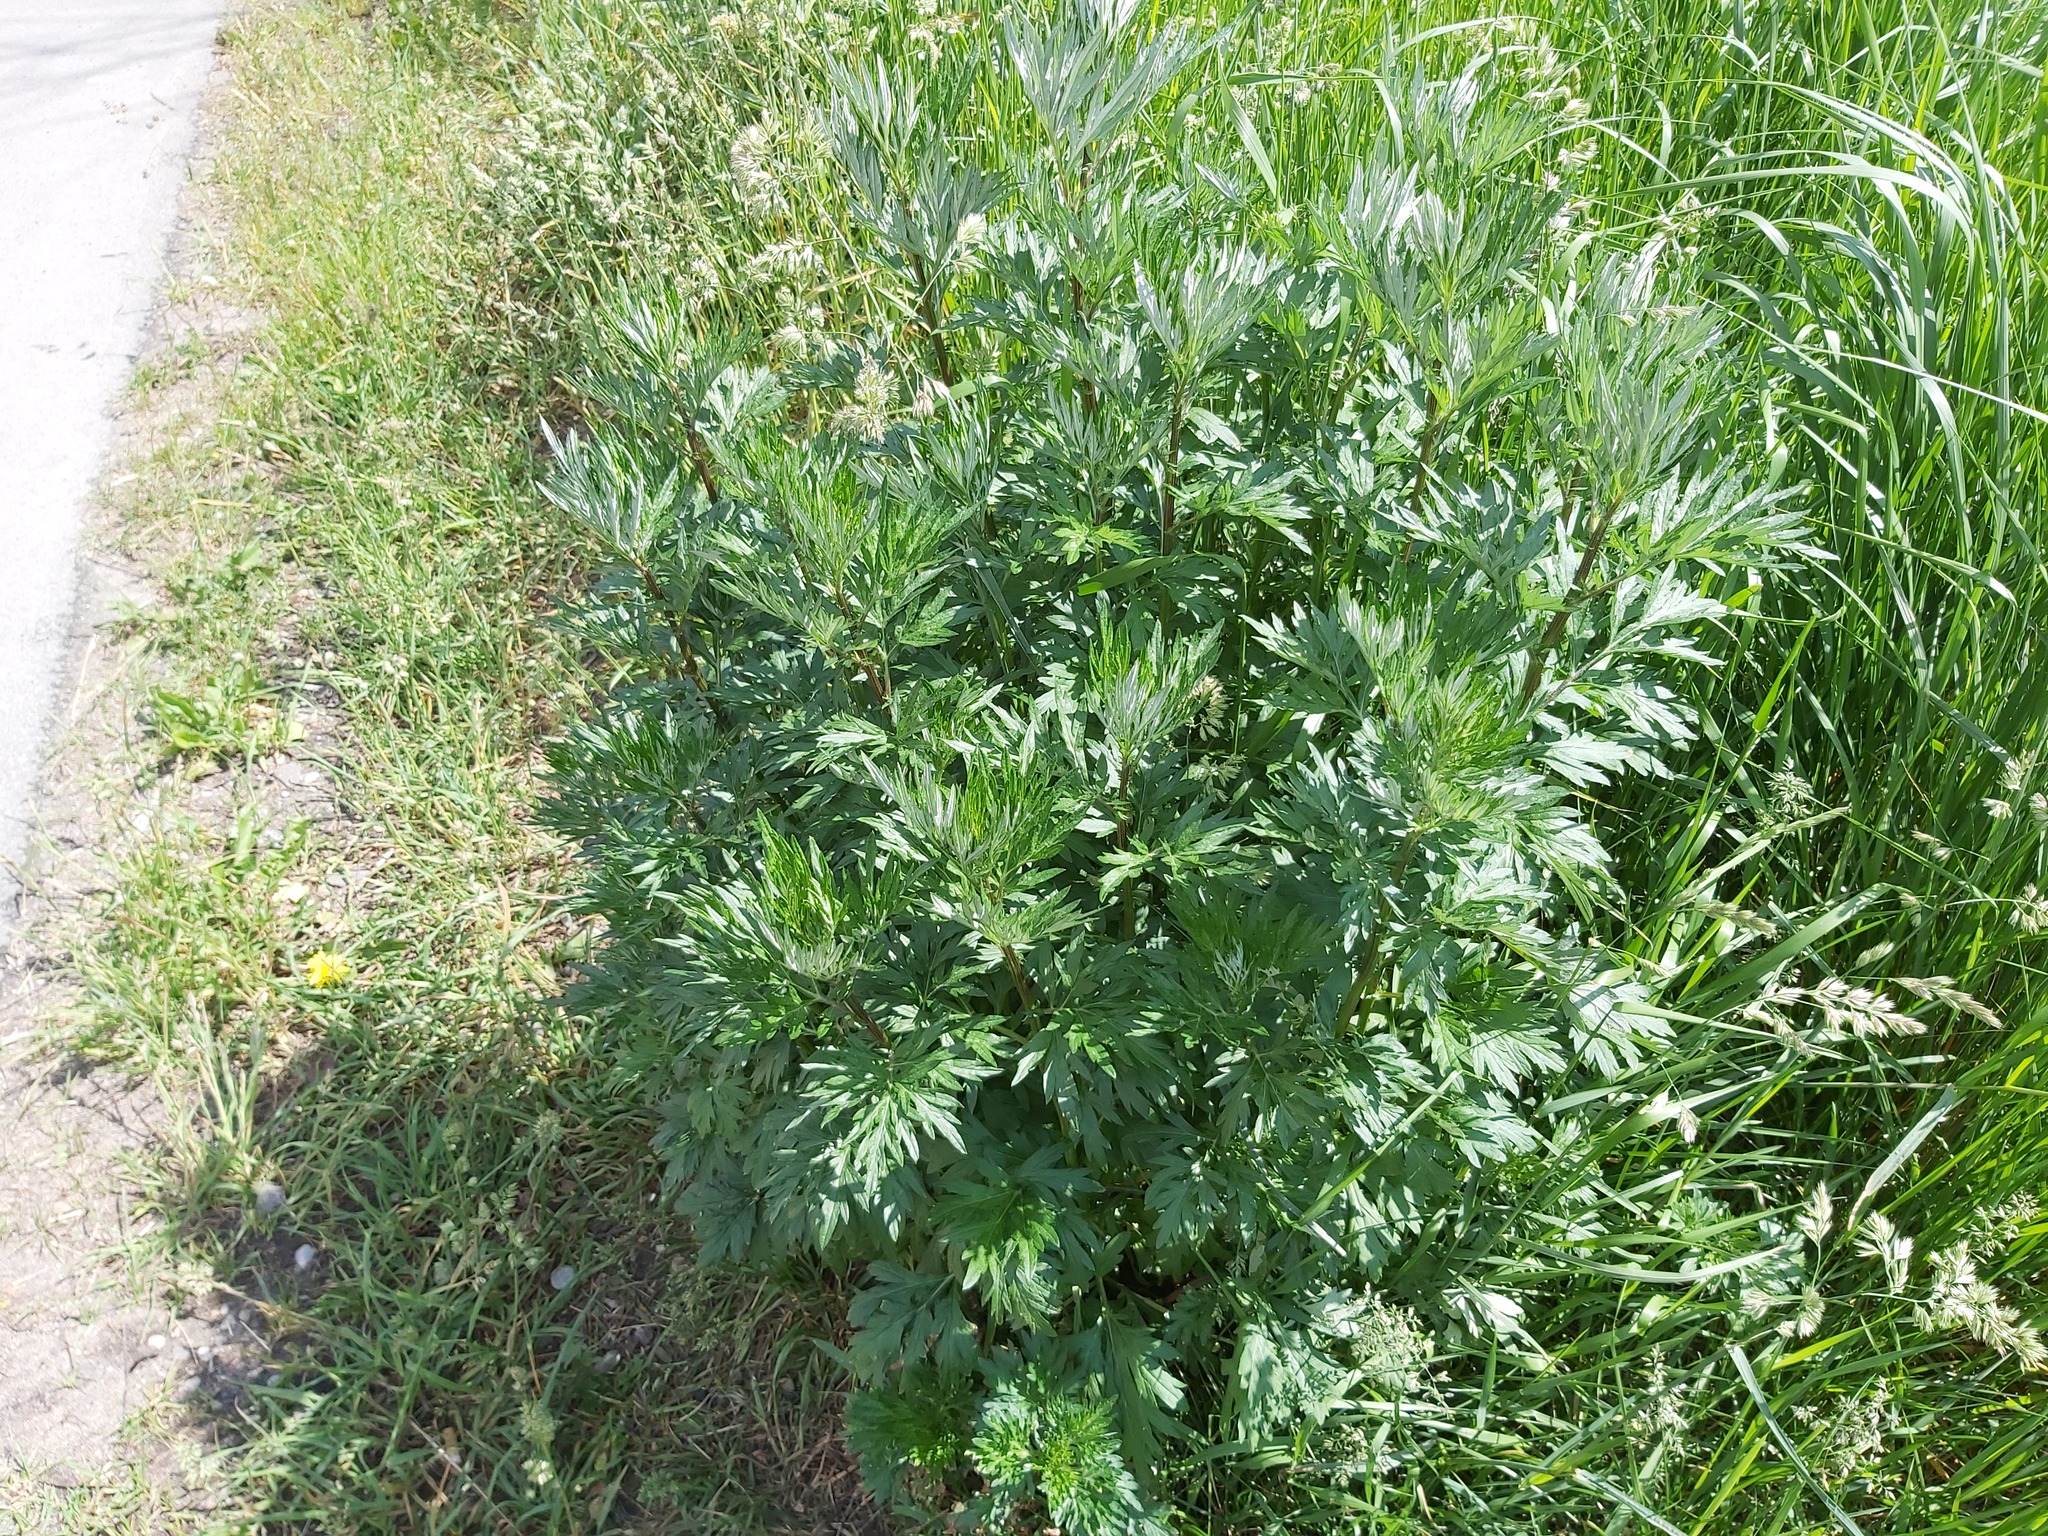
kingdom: Plantae
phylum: Tracheophyta
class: Magnoliopsida
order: Asterales
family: Asteraceae
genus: Artemisia
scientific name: Artemisia vulgaris
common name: Mugwort
